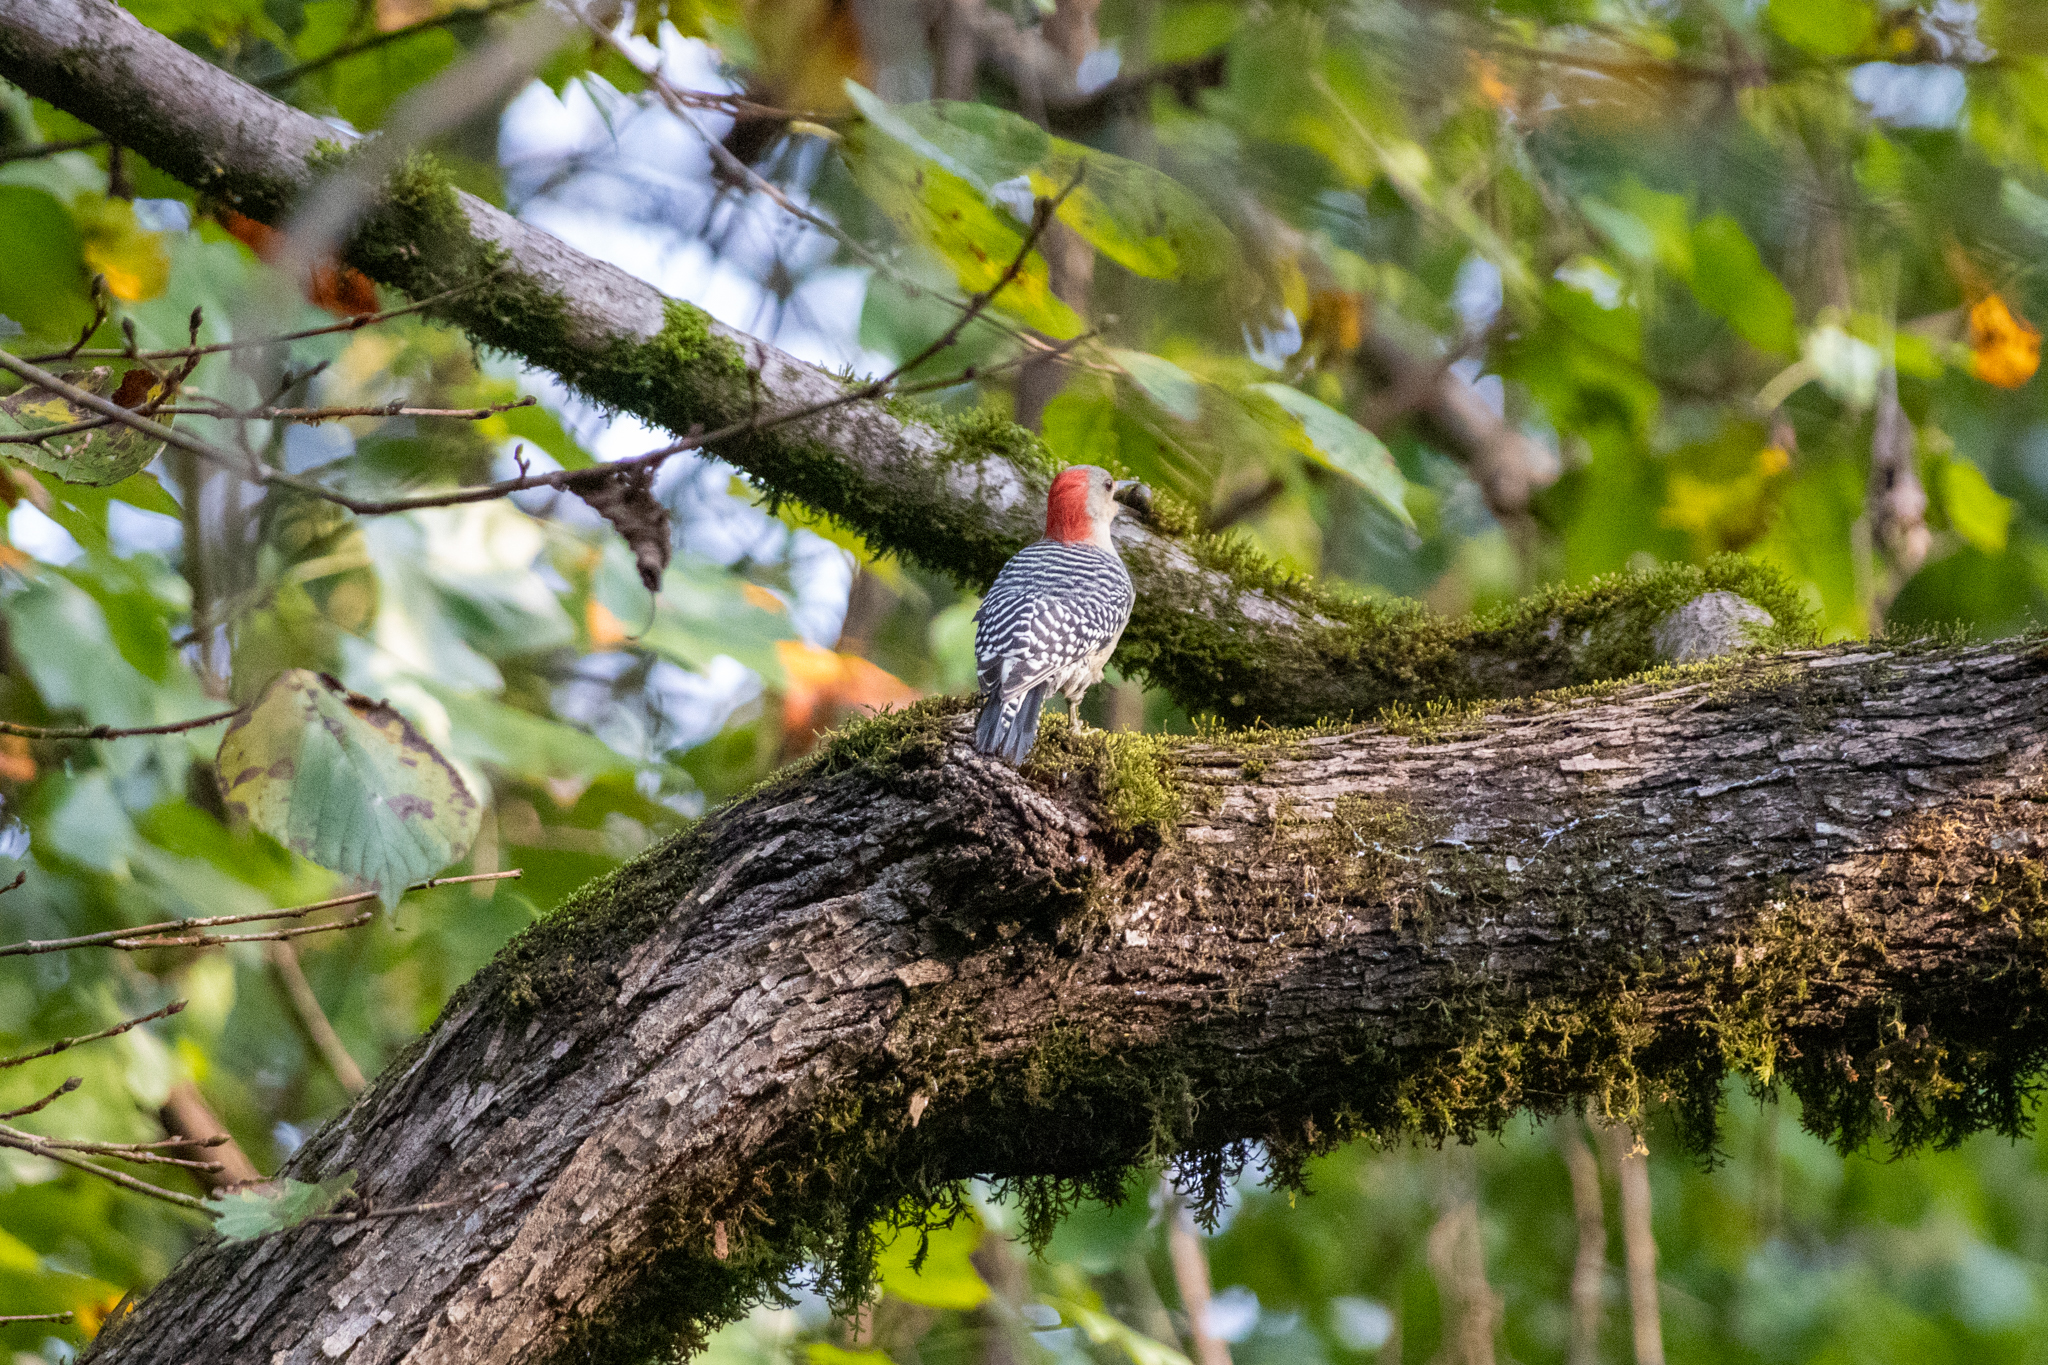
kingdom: Animalia
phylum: Chordata
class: Aves
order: Piciformes
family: Picidae
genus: Melanerpes
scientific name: Melanerpes carolinus
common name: Red-bellied woodpecker
